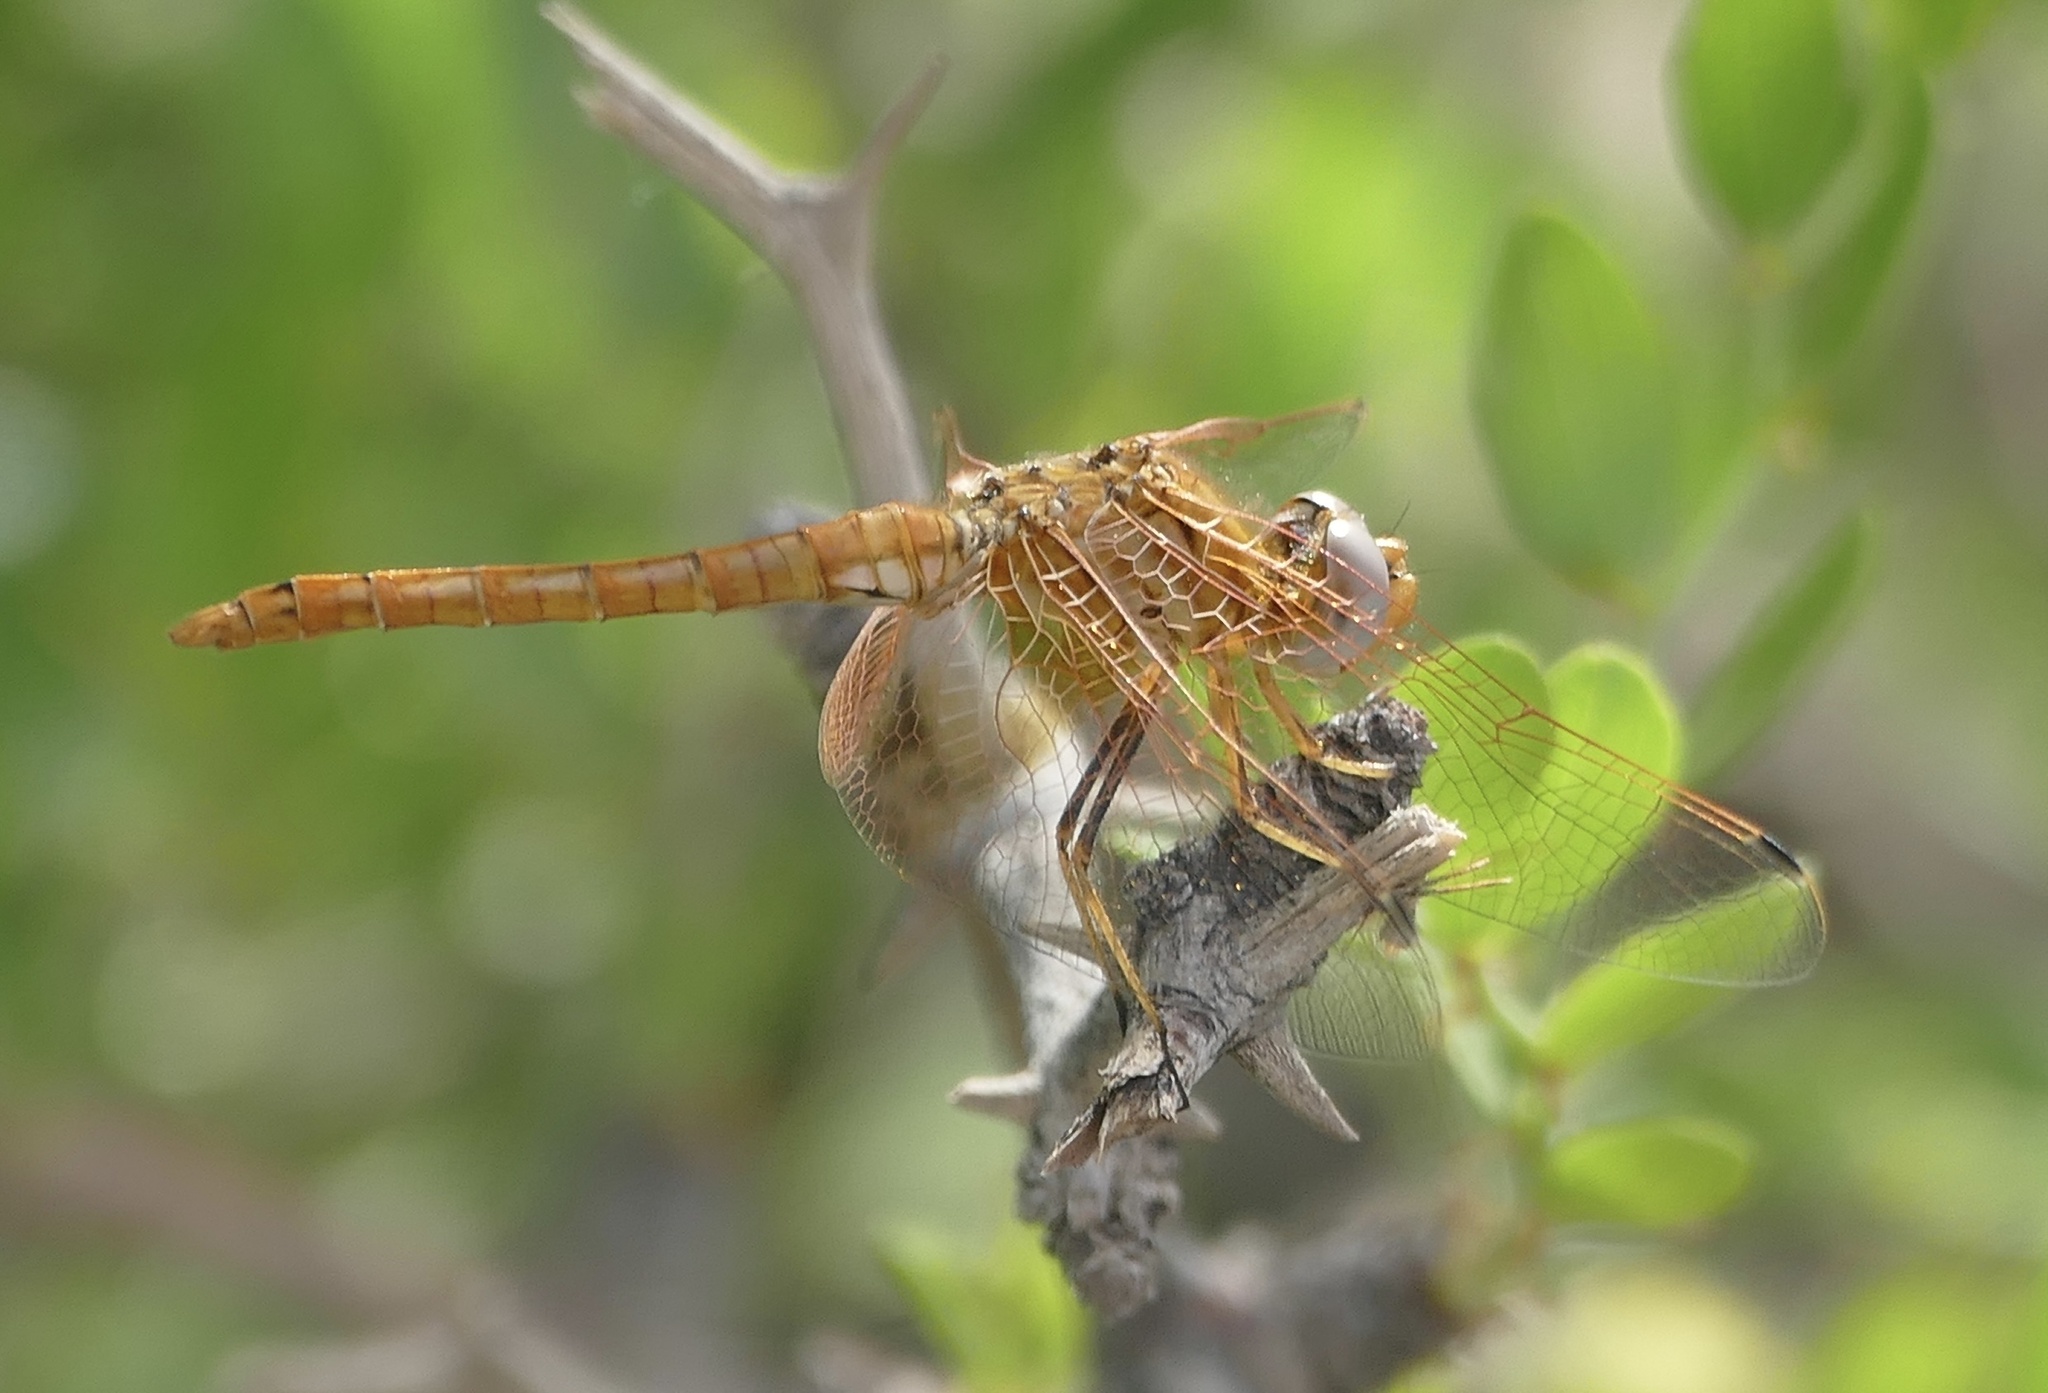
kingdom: Animalia
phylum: Arthropoda
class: Insecta
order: Odonata
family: Libellulidae
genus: Trithemis
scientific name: Trithemis kirbyi
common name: Kirby's dropwing
